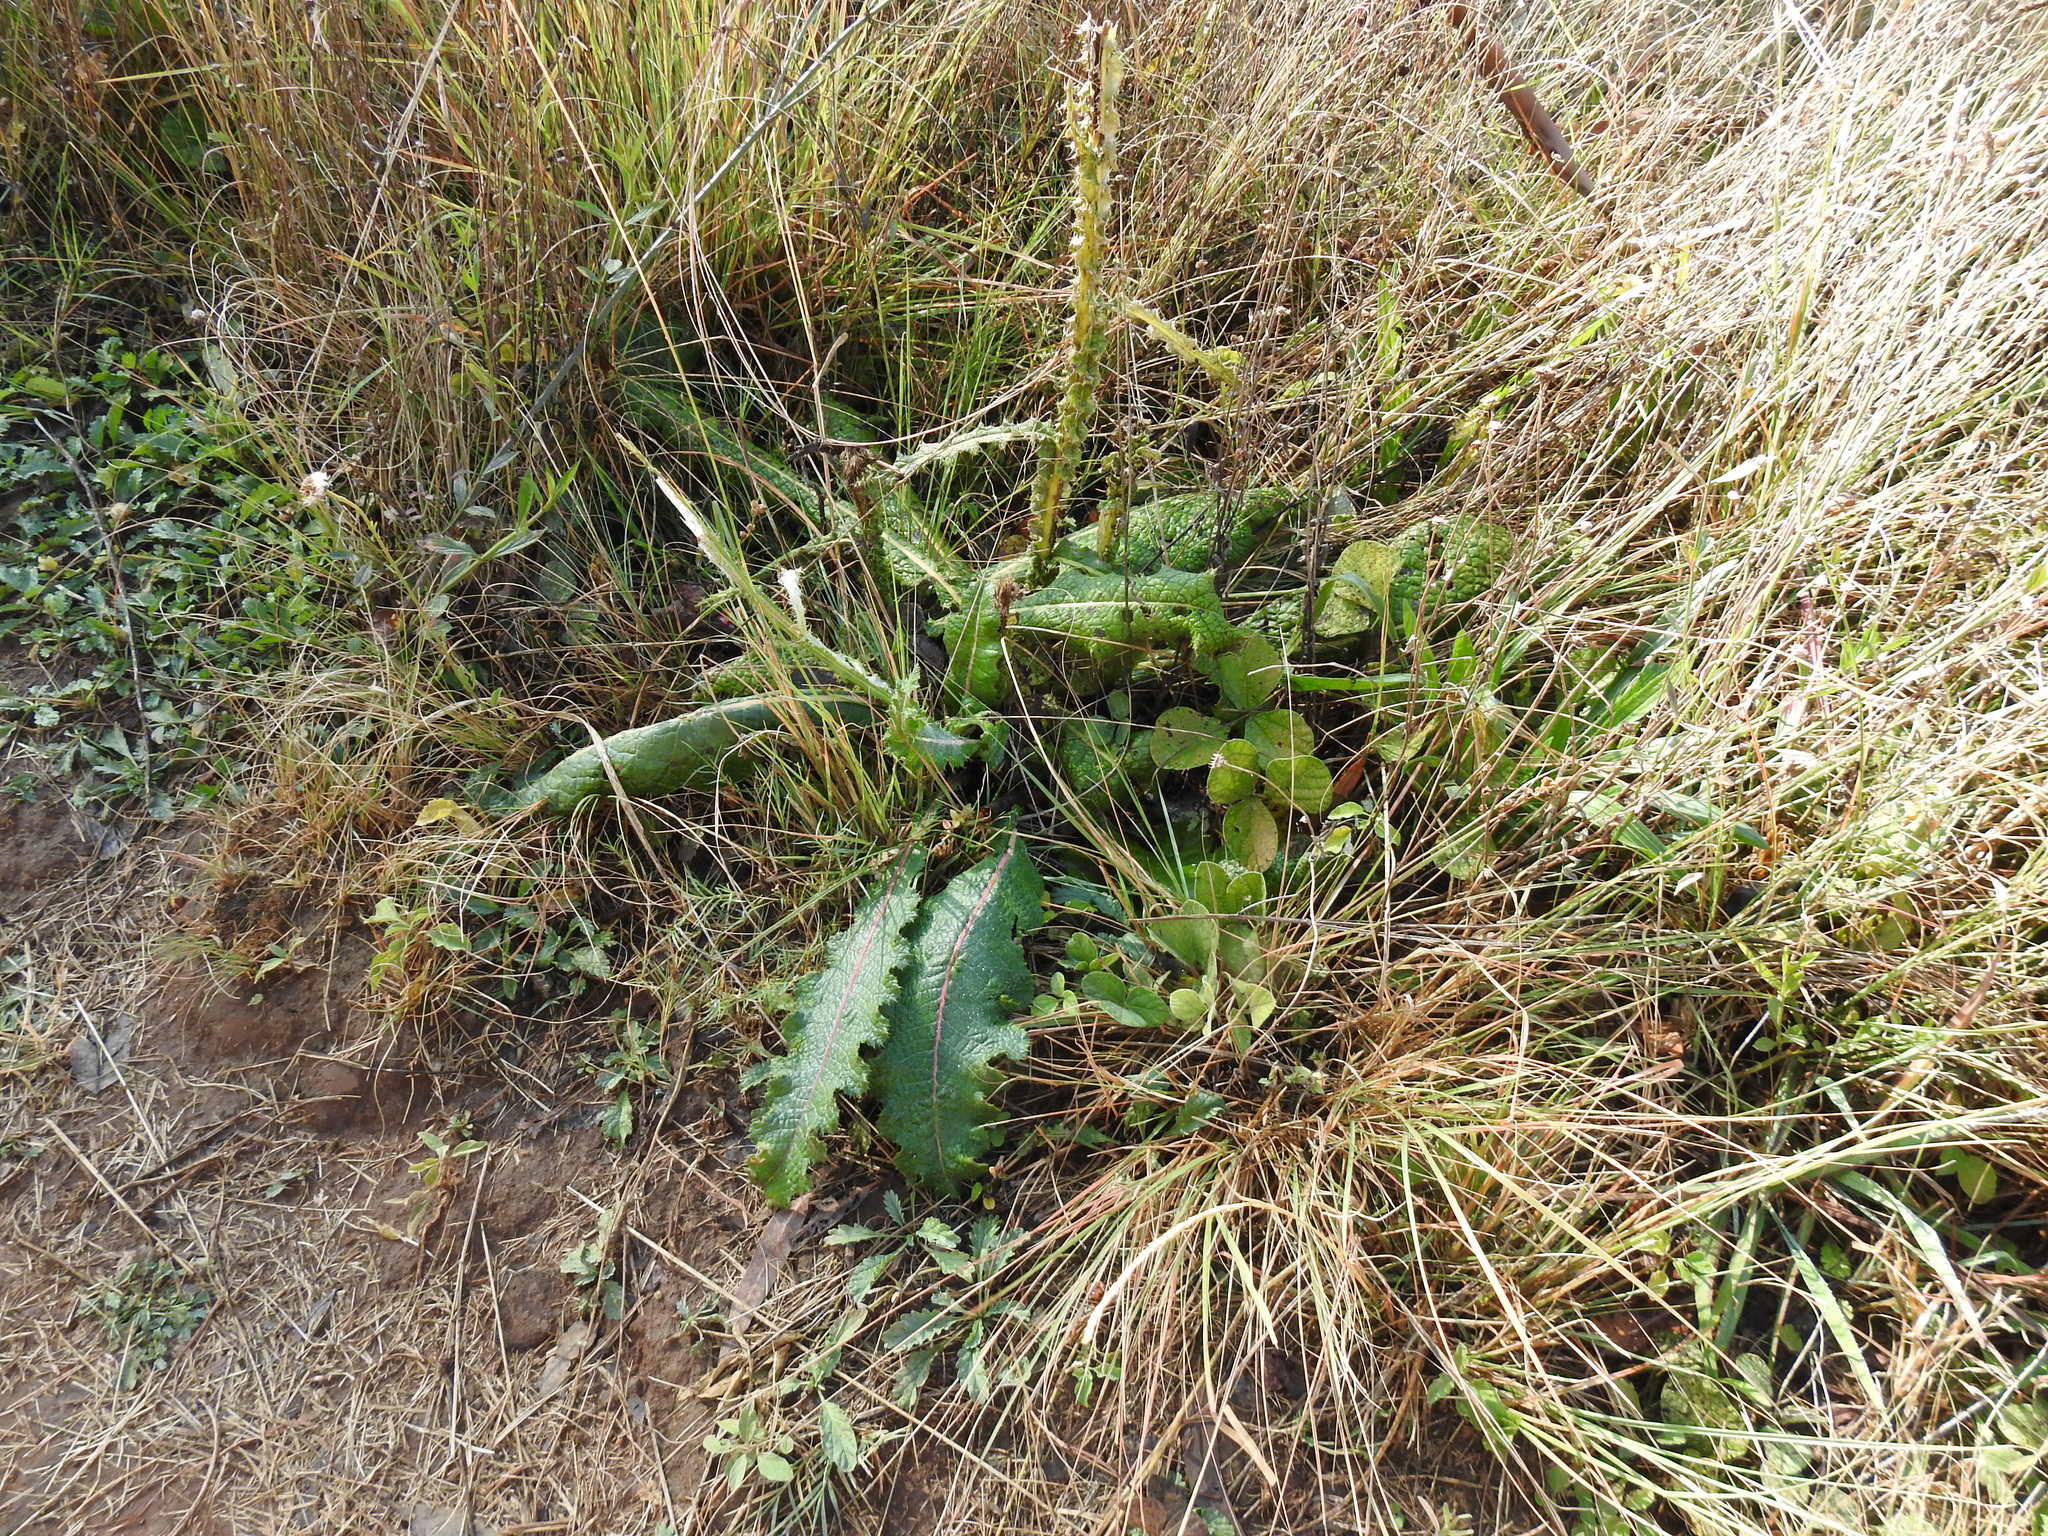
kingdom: Plantae
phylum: Tracheophyta
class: Magnoliopsida
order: Asterales
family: Asteraceae
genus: Berkheya
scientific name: Berkheya radula
